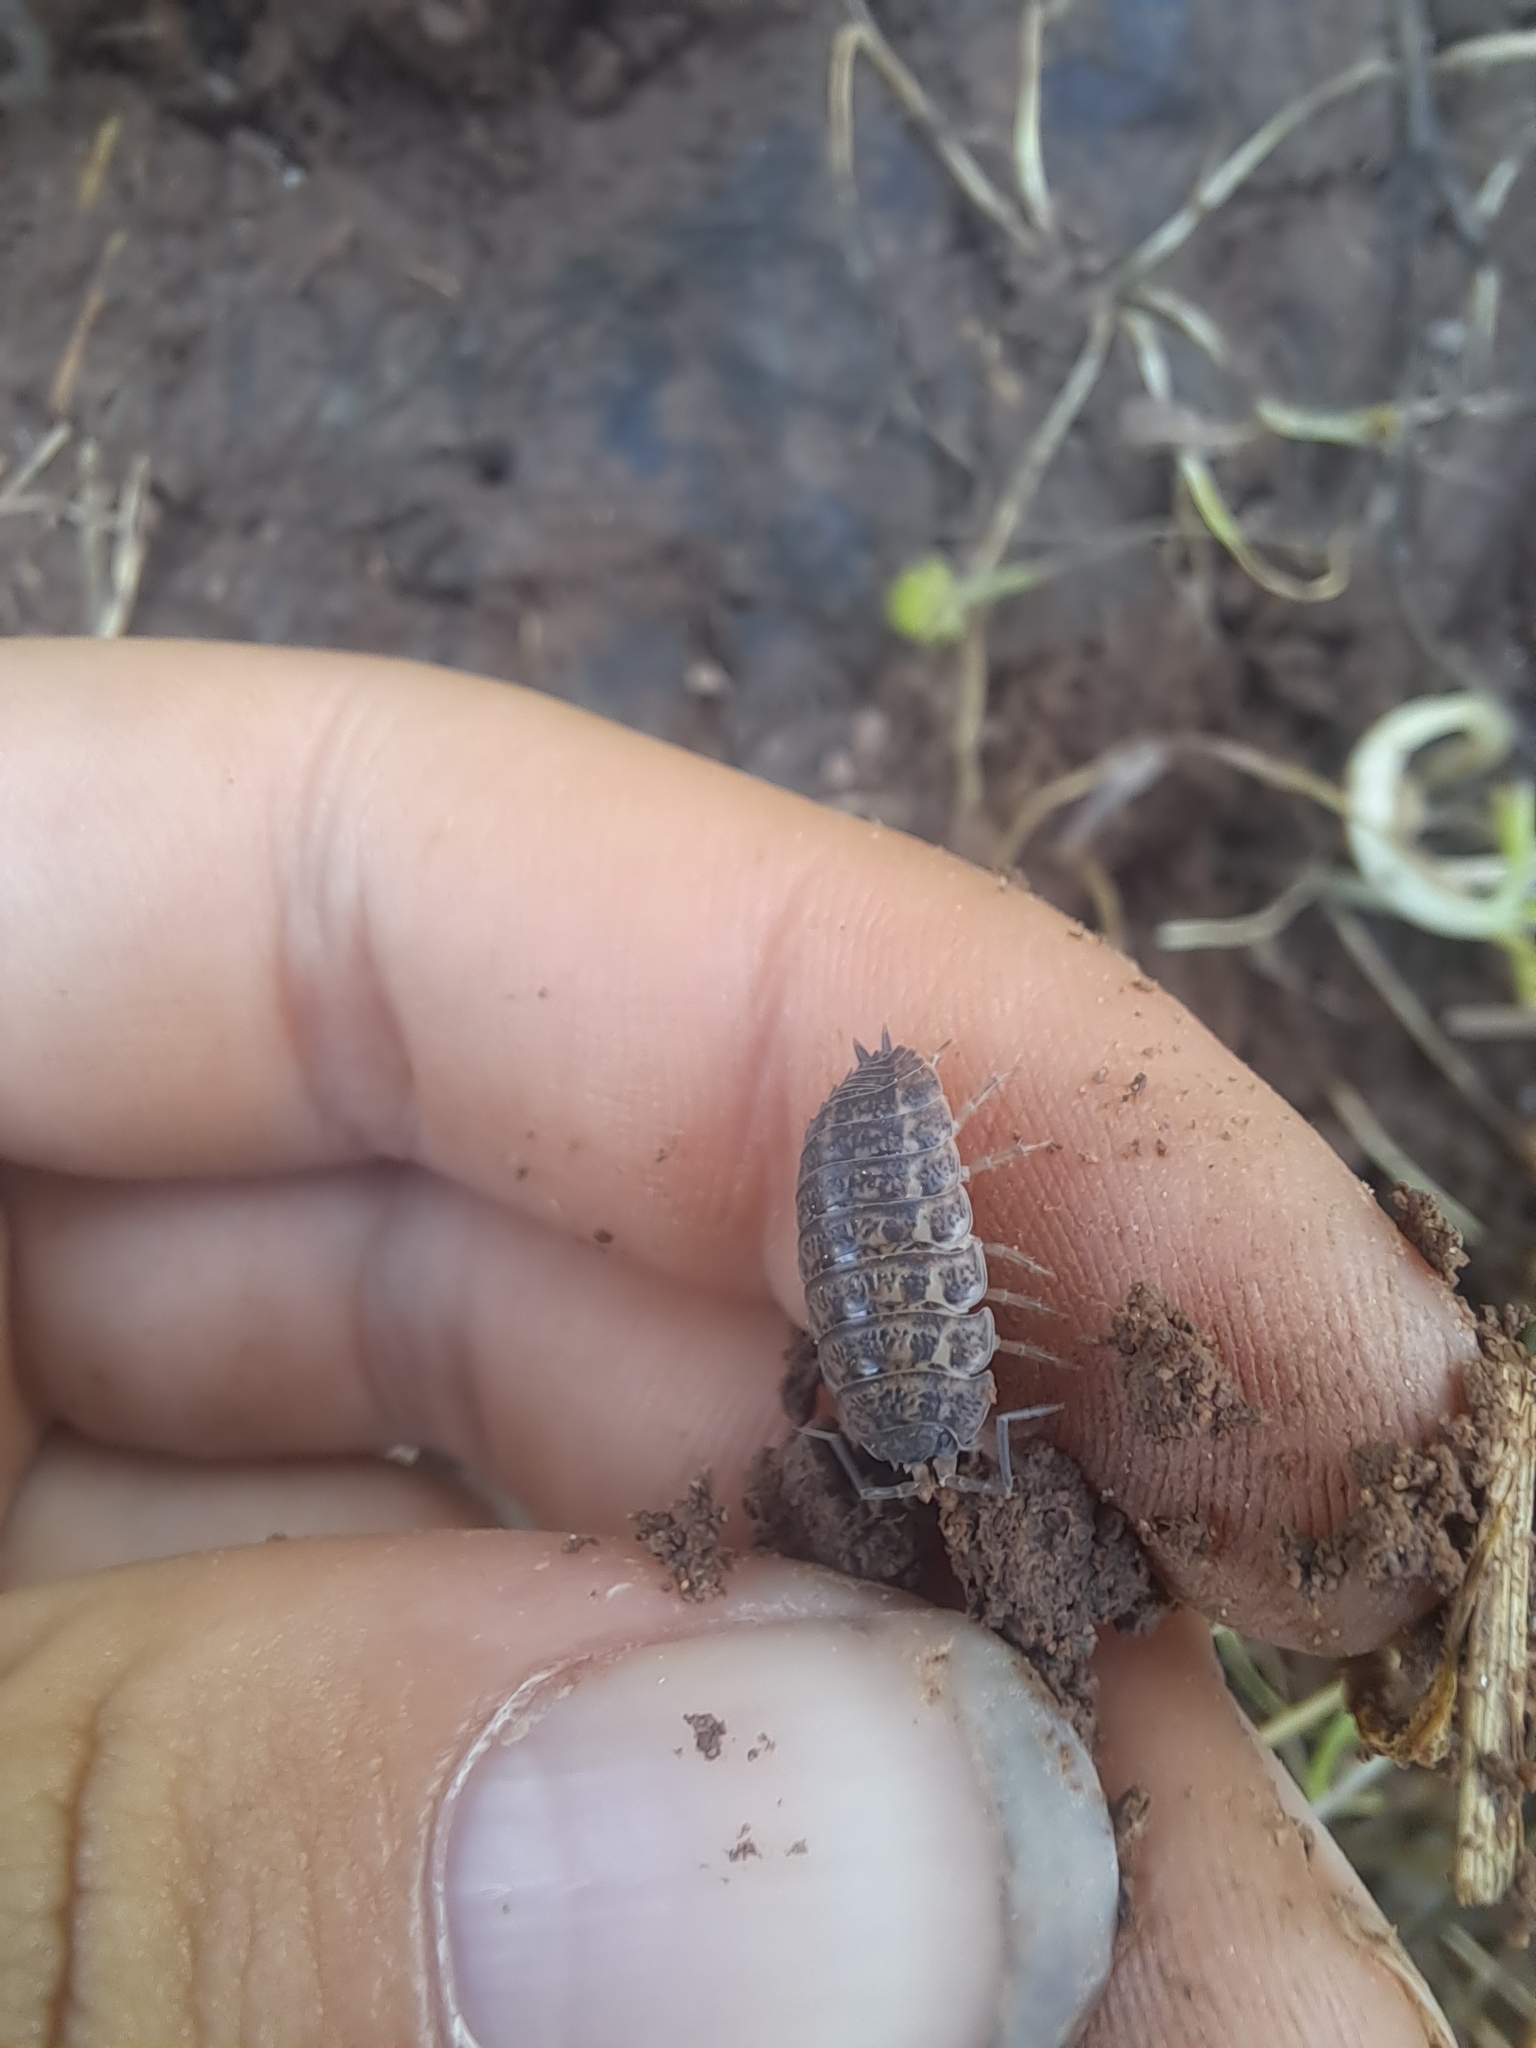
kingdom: Animalia
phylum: Arthropoda
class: Malacostraca
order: Isopoda
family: Trachelipodidae
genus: Trachelipus
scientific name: Trachelipus rathkii
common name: Isopod
